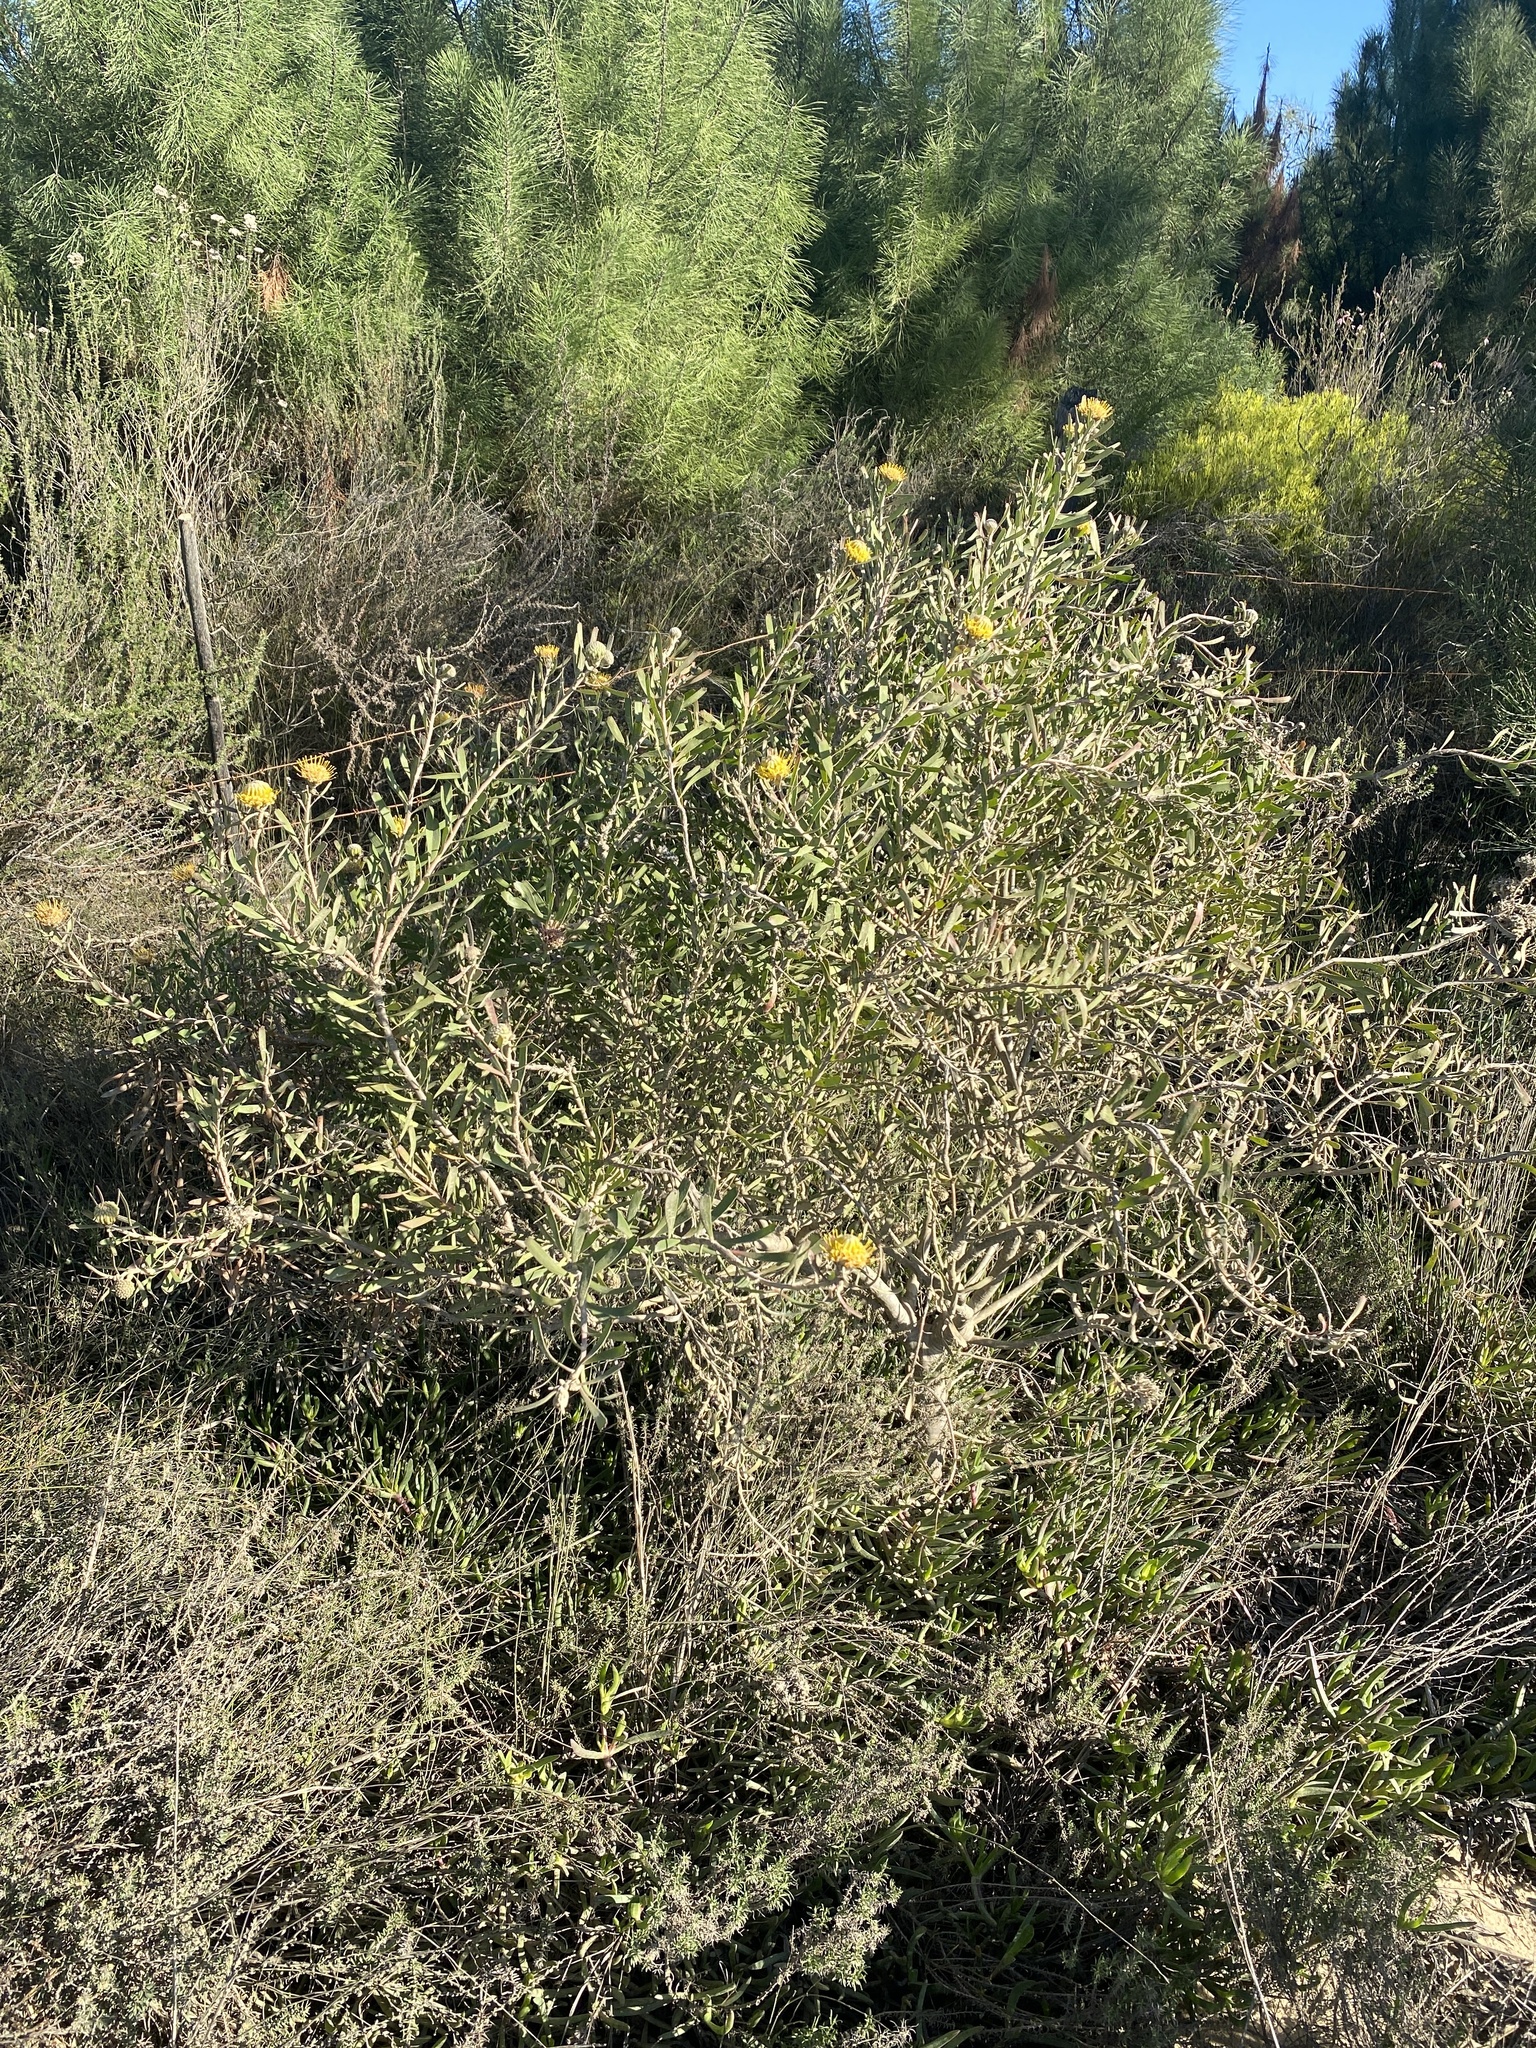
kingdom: Plantae
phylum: Tracheophyta
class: Magnoliopsida
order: Proteales
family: Proteaceae
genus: Leucospermum
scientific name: Leucospermum muirii
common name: Albertinia pincushion
